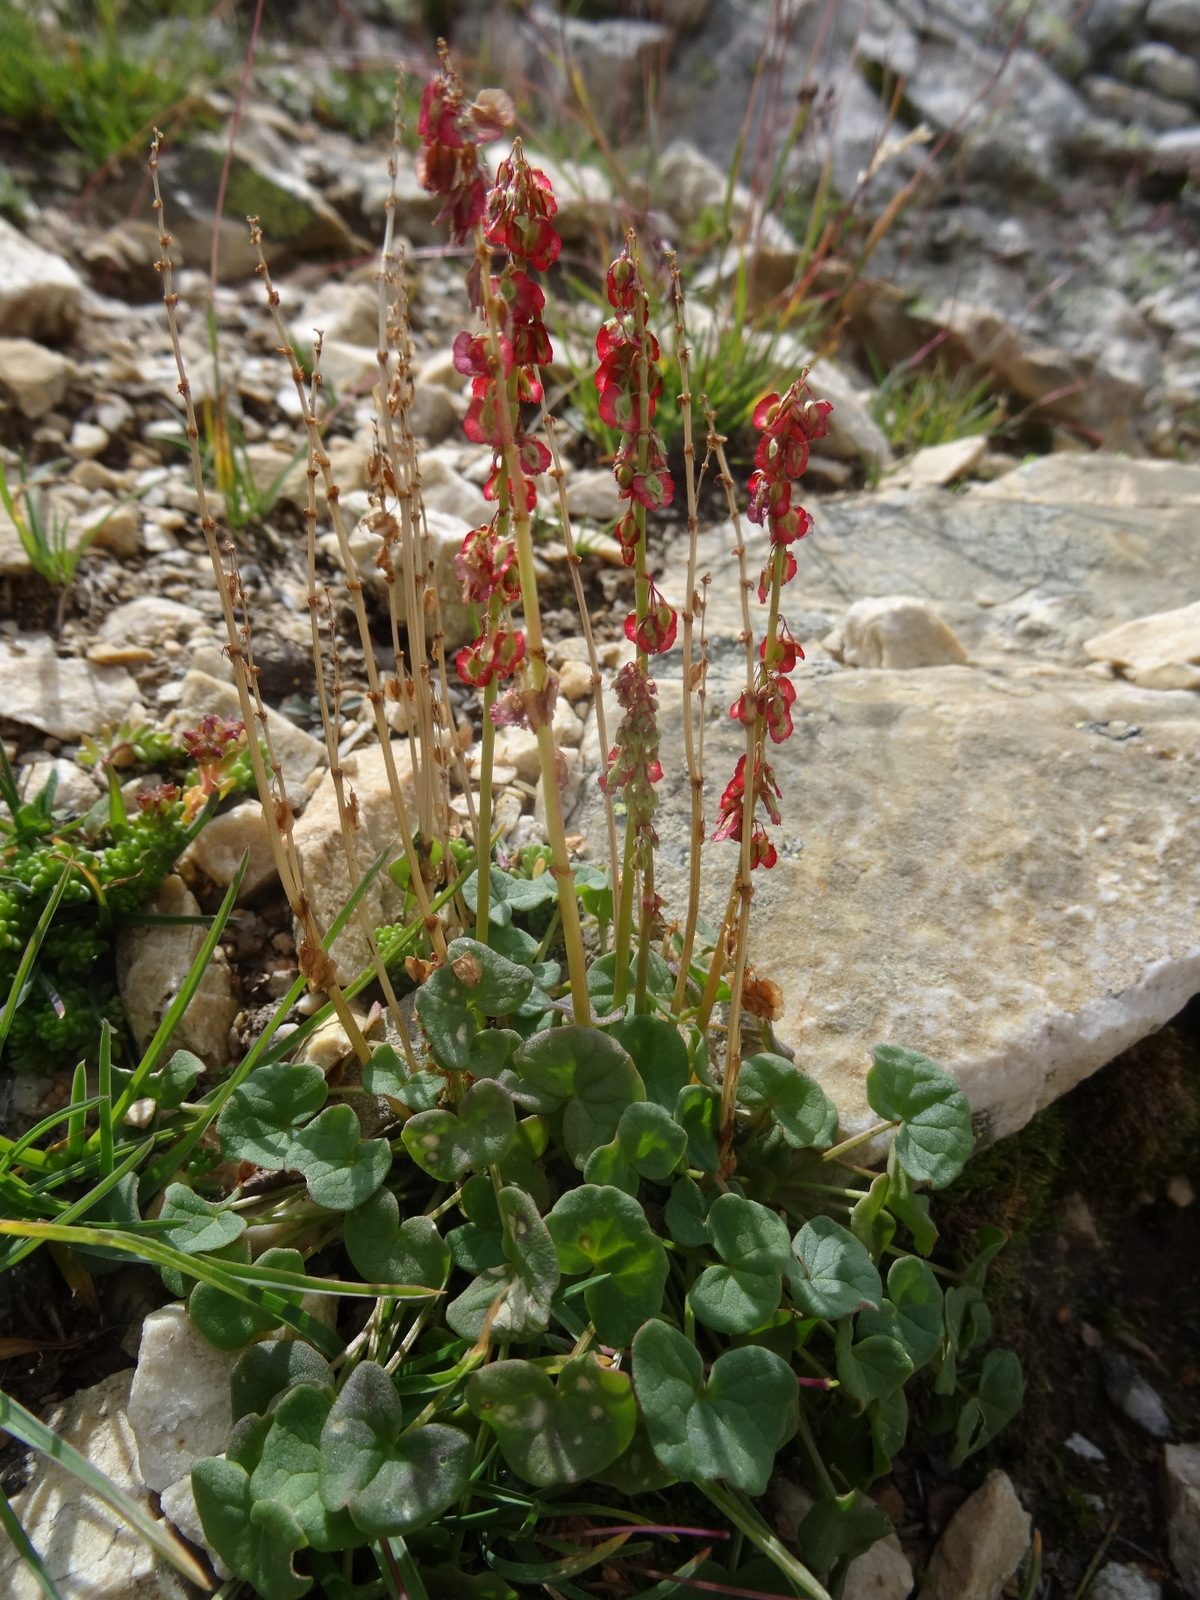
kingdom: Plantae
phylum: Tracheophyta
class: Magnoliopsida
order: Caryophyllales
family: Polygonaceae
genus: Oxyria
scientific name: Oxyria digyna
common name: Alpine mountain-sorrel
